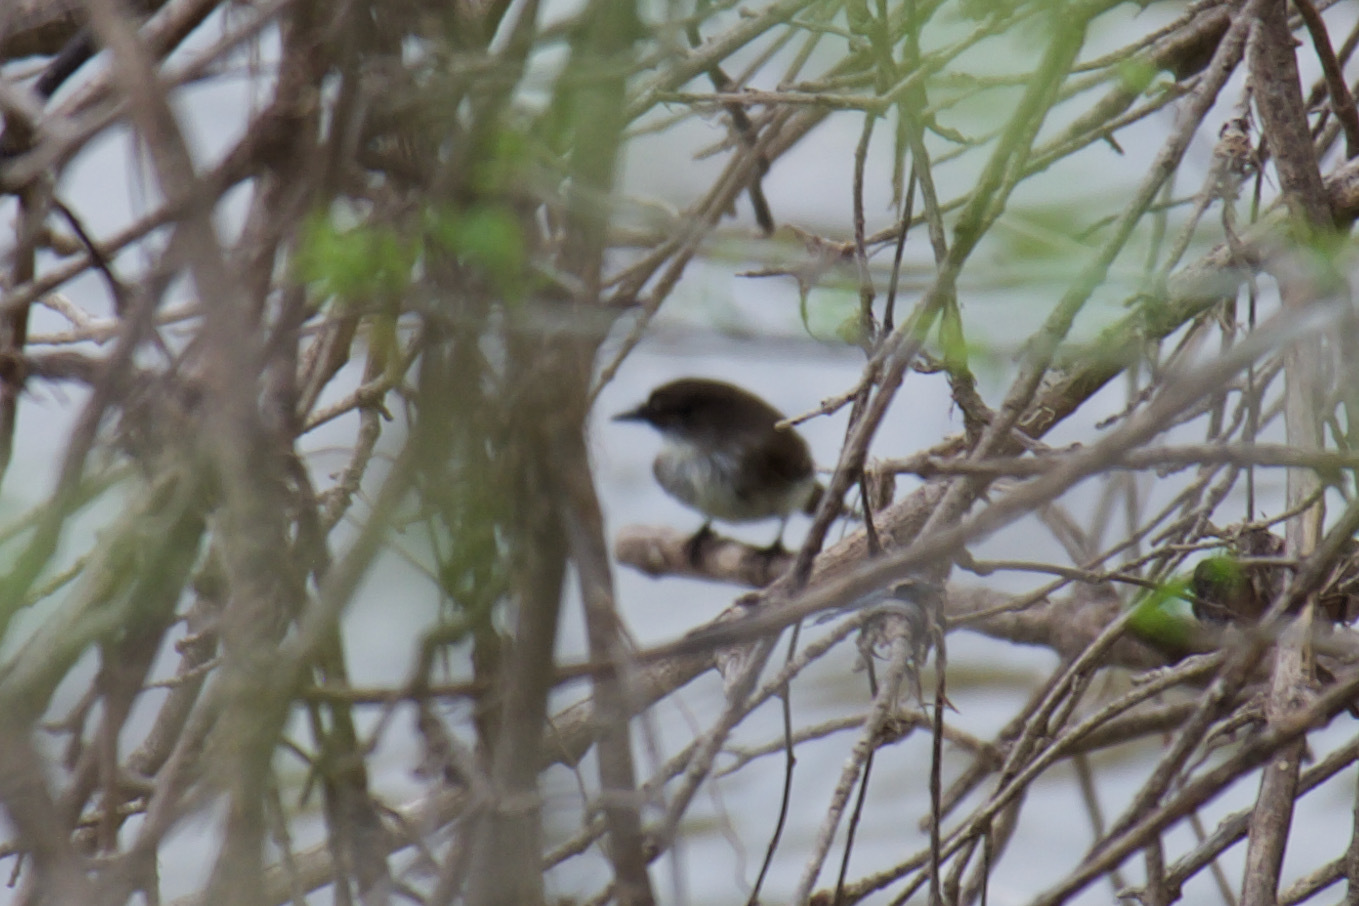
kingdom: Animalia
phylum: Chordata
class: Aves
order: Passeriformes
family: Tyrannidae
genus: Sayornis
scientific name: Sayornis phoebe
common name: Eastern phoebe
